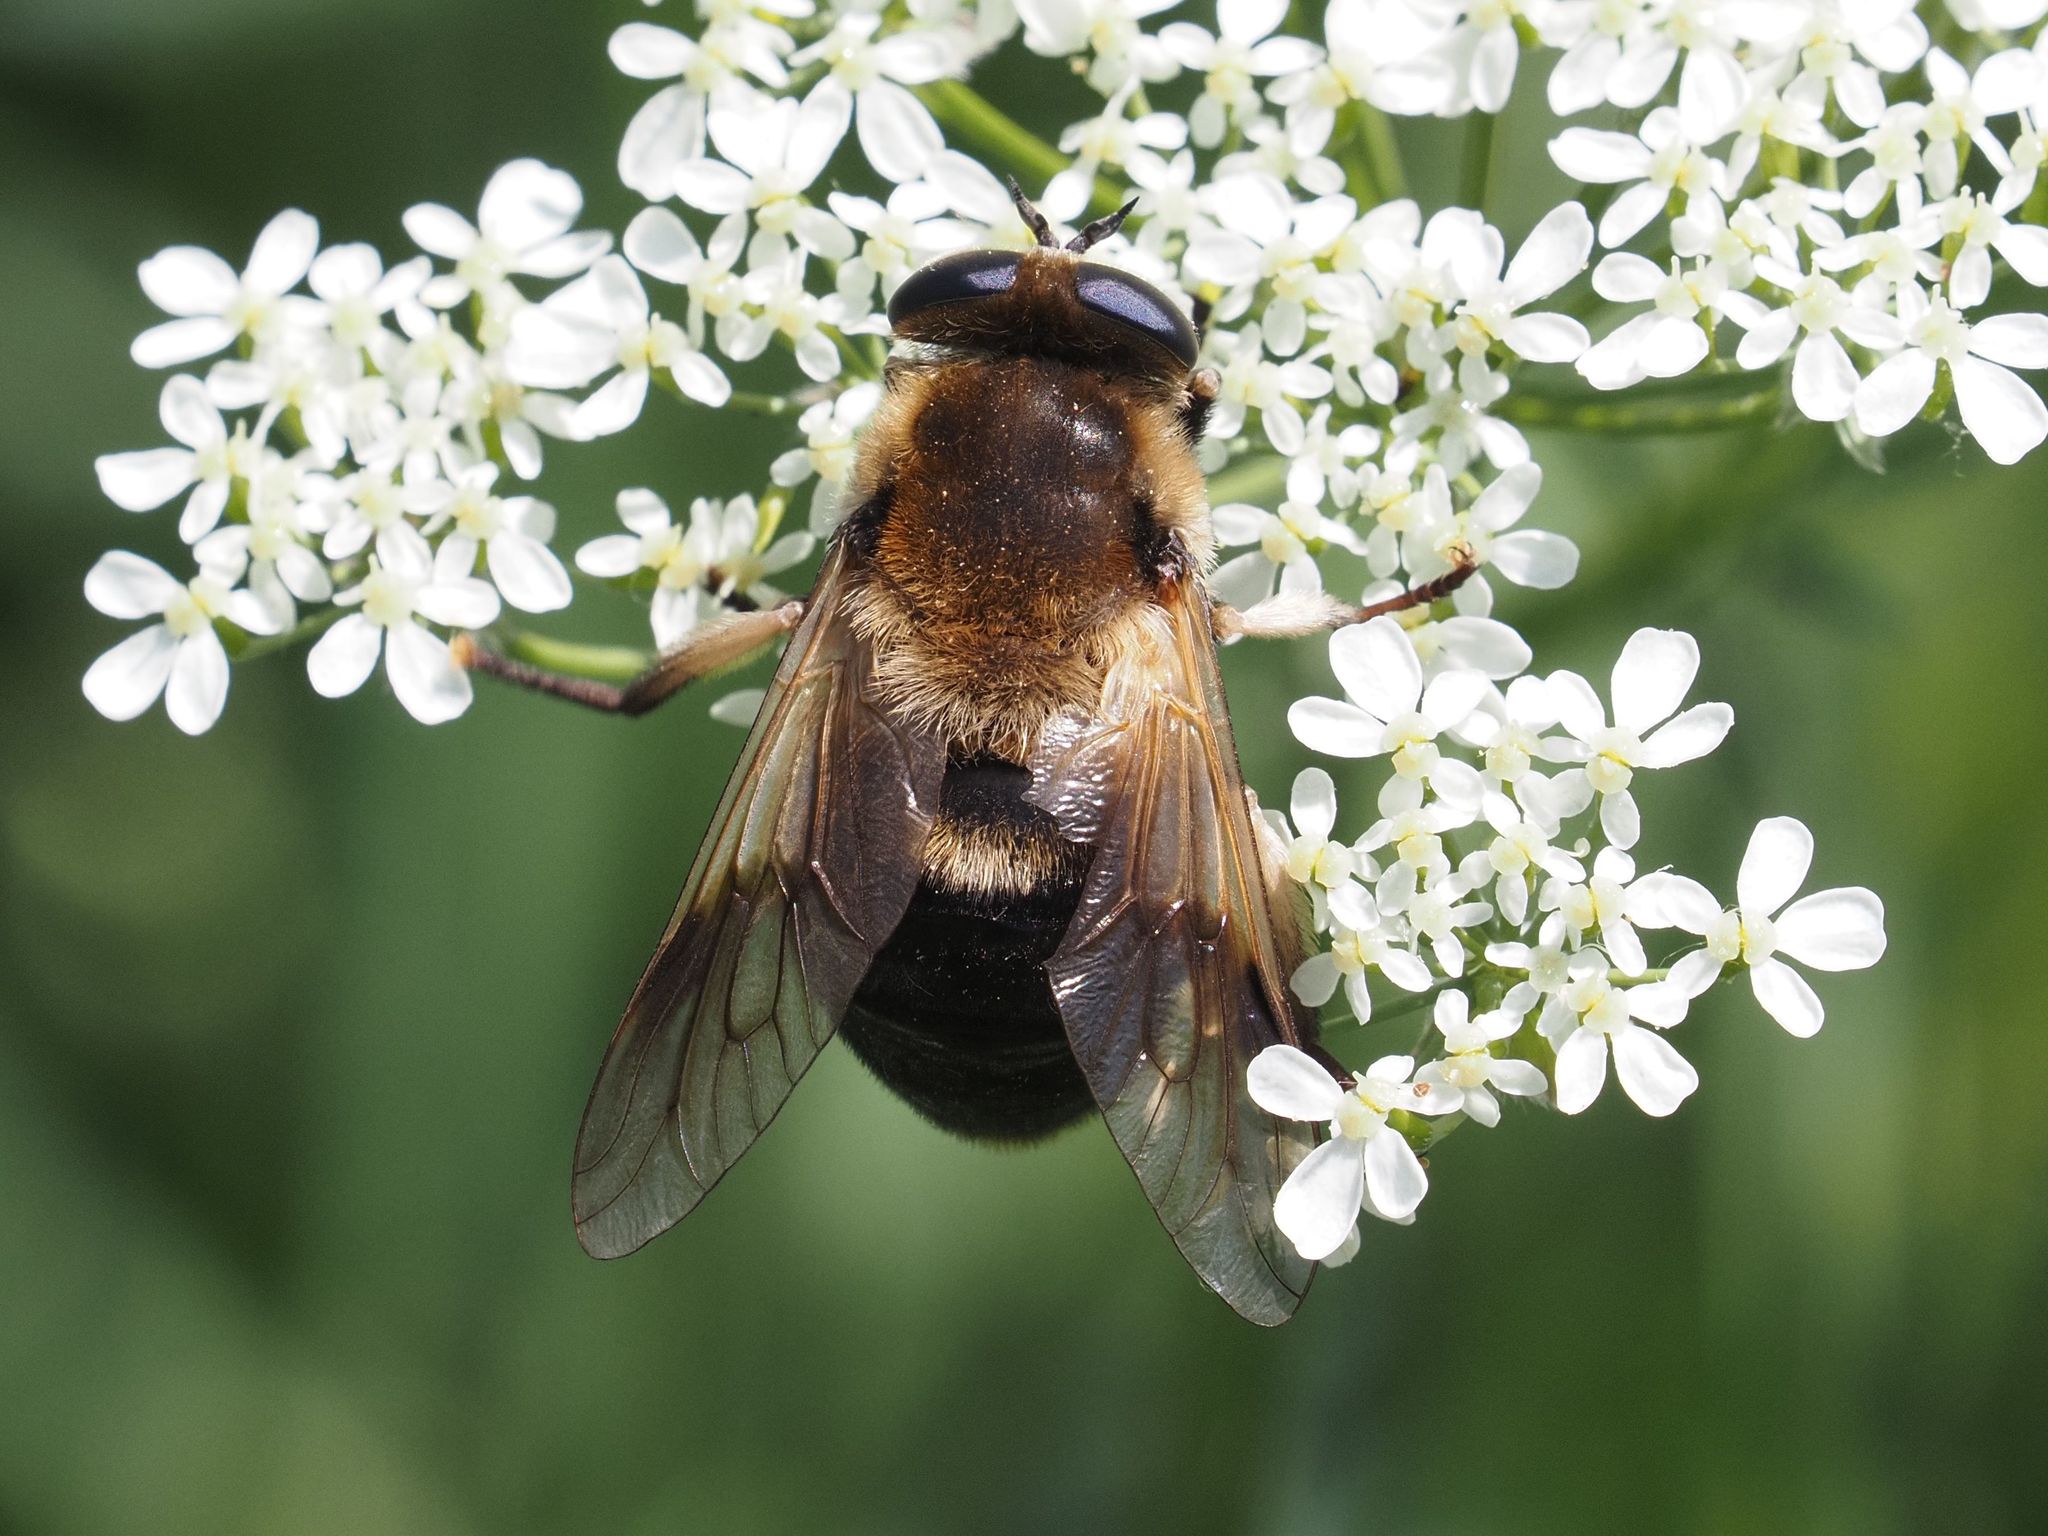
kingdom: Animalia
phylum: Arthropoda
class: Insecta
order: Diptera
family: Tabanidae
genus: Therioplectes
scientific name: Therioplectes gigas
